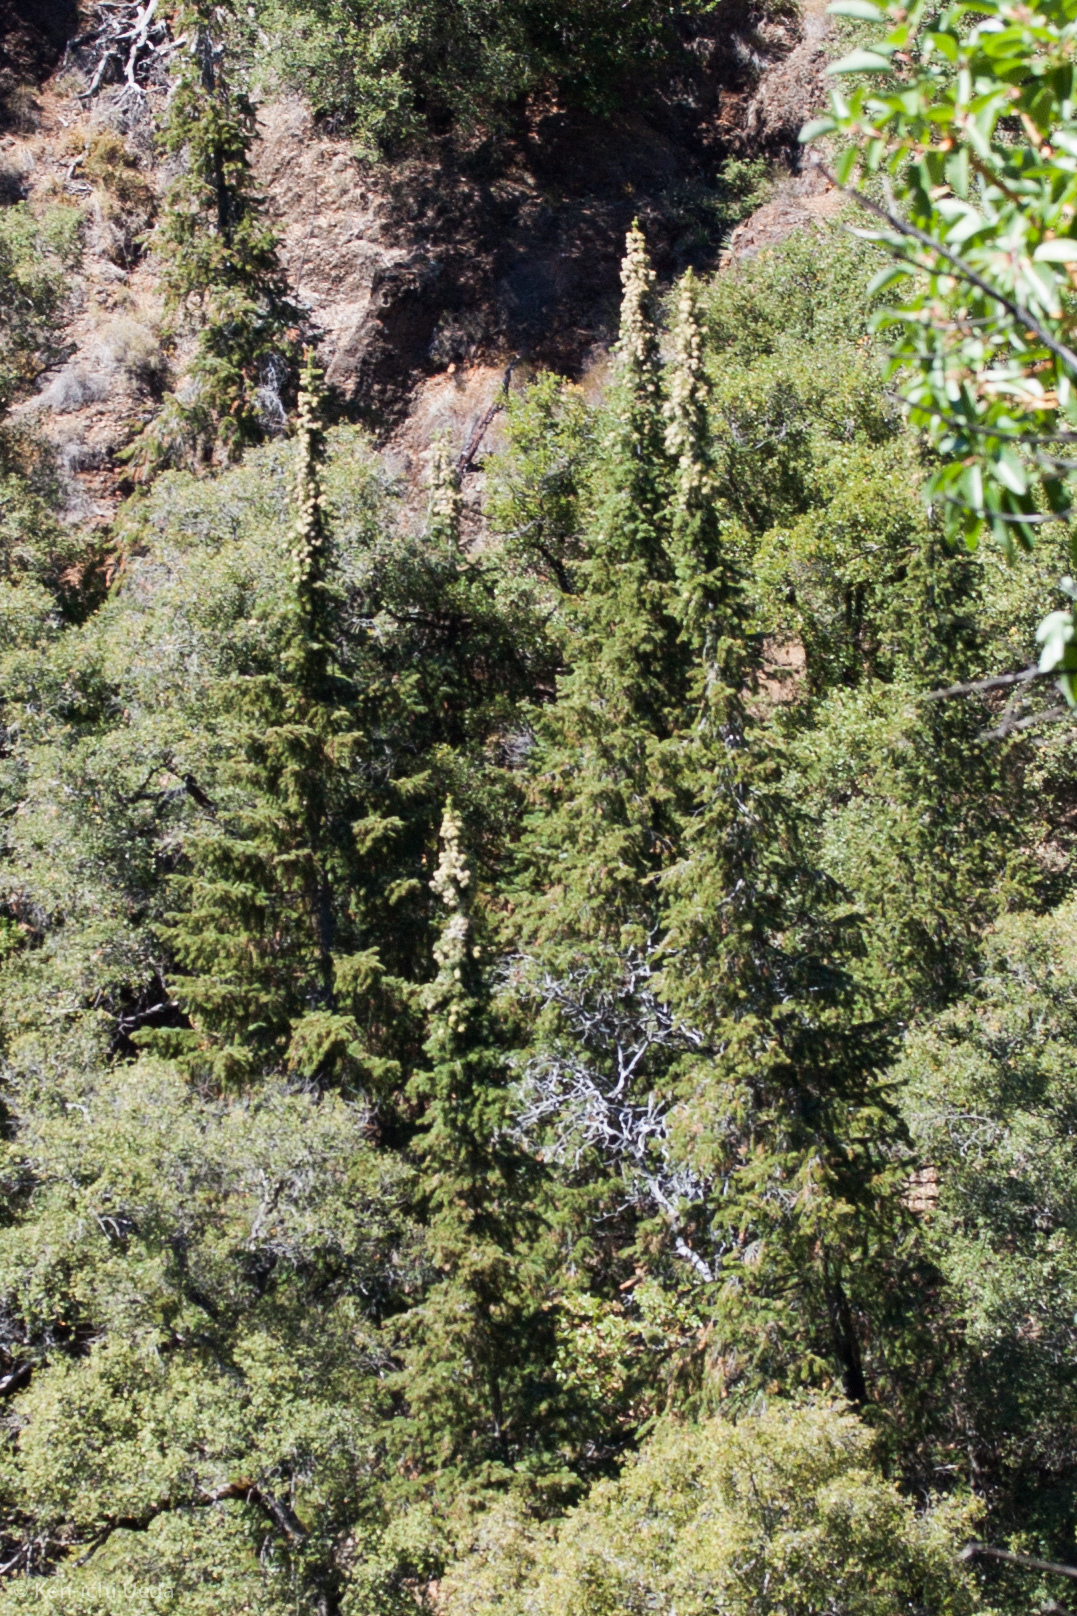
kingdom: Plantae
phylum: Tracheophyta
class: Pinopsida
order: Pinales
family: Pinaceae
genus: Abies
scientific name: Abies bracteata
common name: Bristlecone fir
